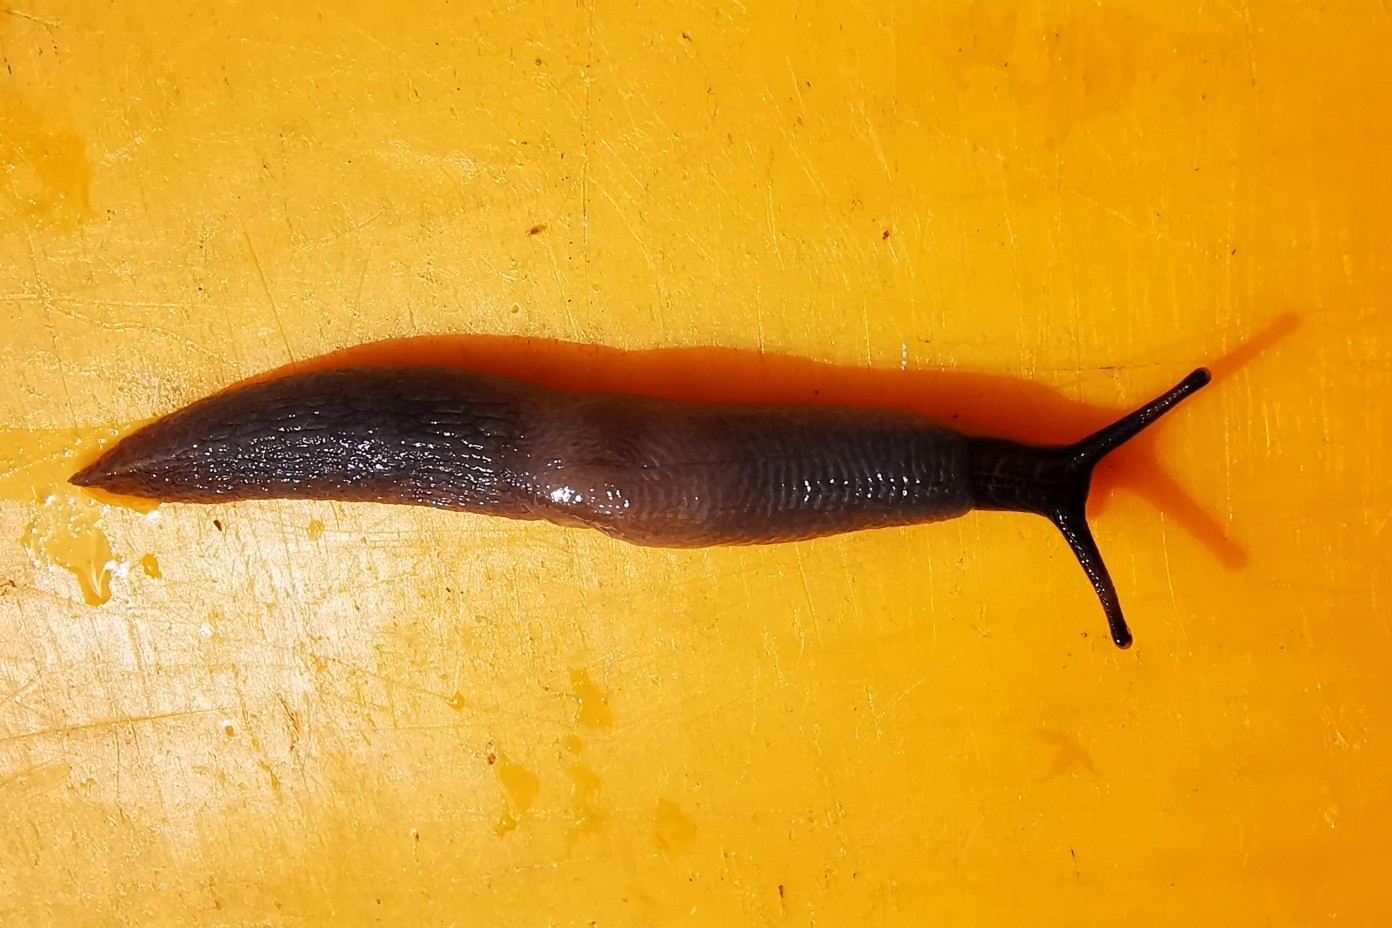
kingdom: Animalia
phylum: Mollusca
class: Gastropoda
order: Stylommatophora
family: Agriolimacidae
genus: Krynickillus
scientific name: Krynickillus melanocephalus
